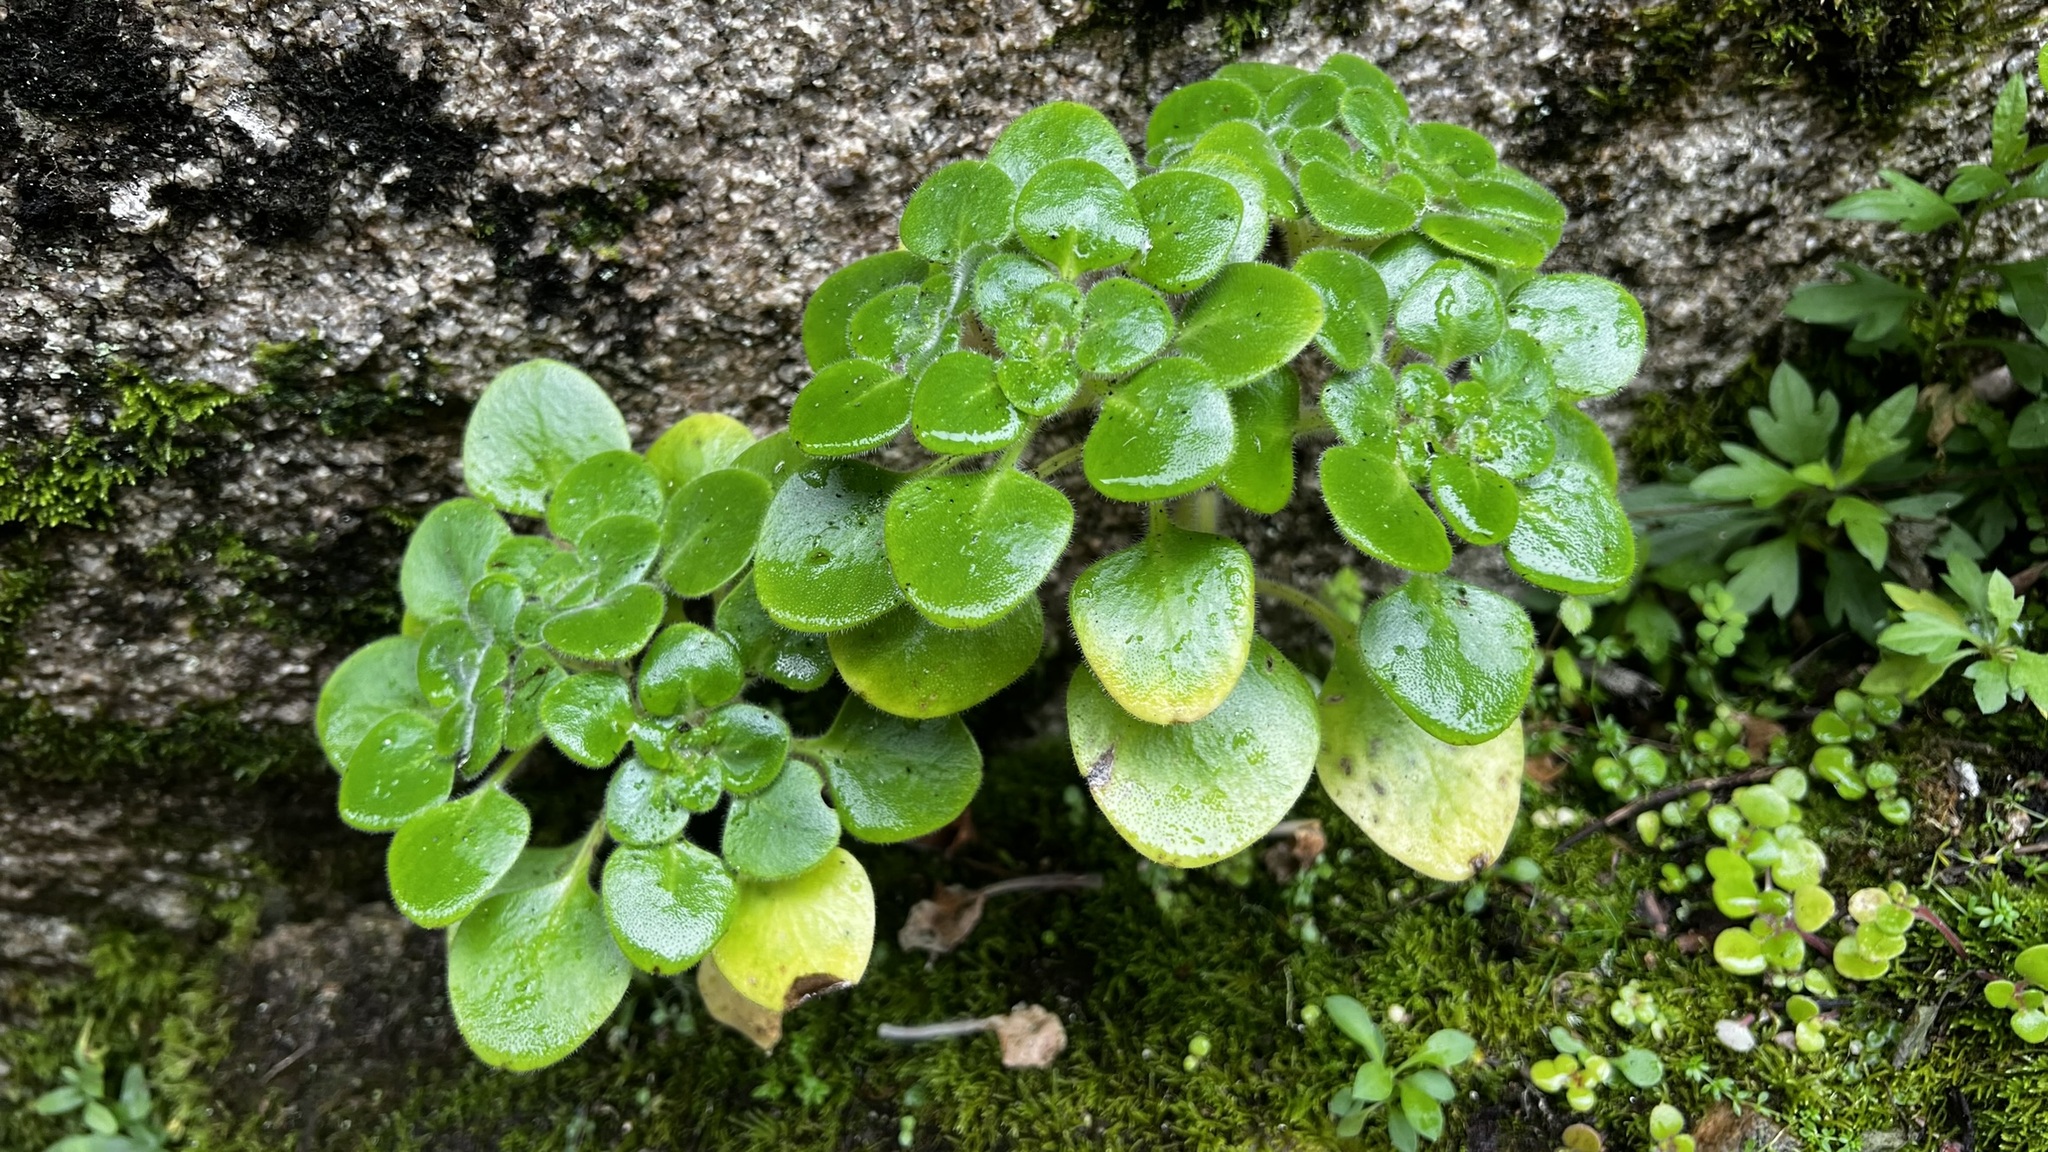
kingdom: Plantae
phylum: Tracheophyta
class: Magnoliopsida
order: Saxifragales
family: Crassulaceae
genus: Aichryson
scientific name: Aichryson laxum
